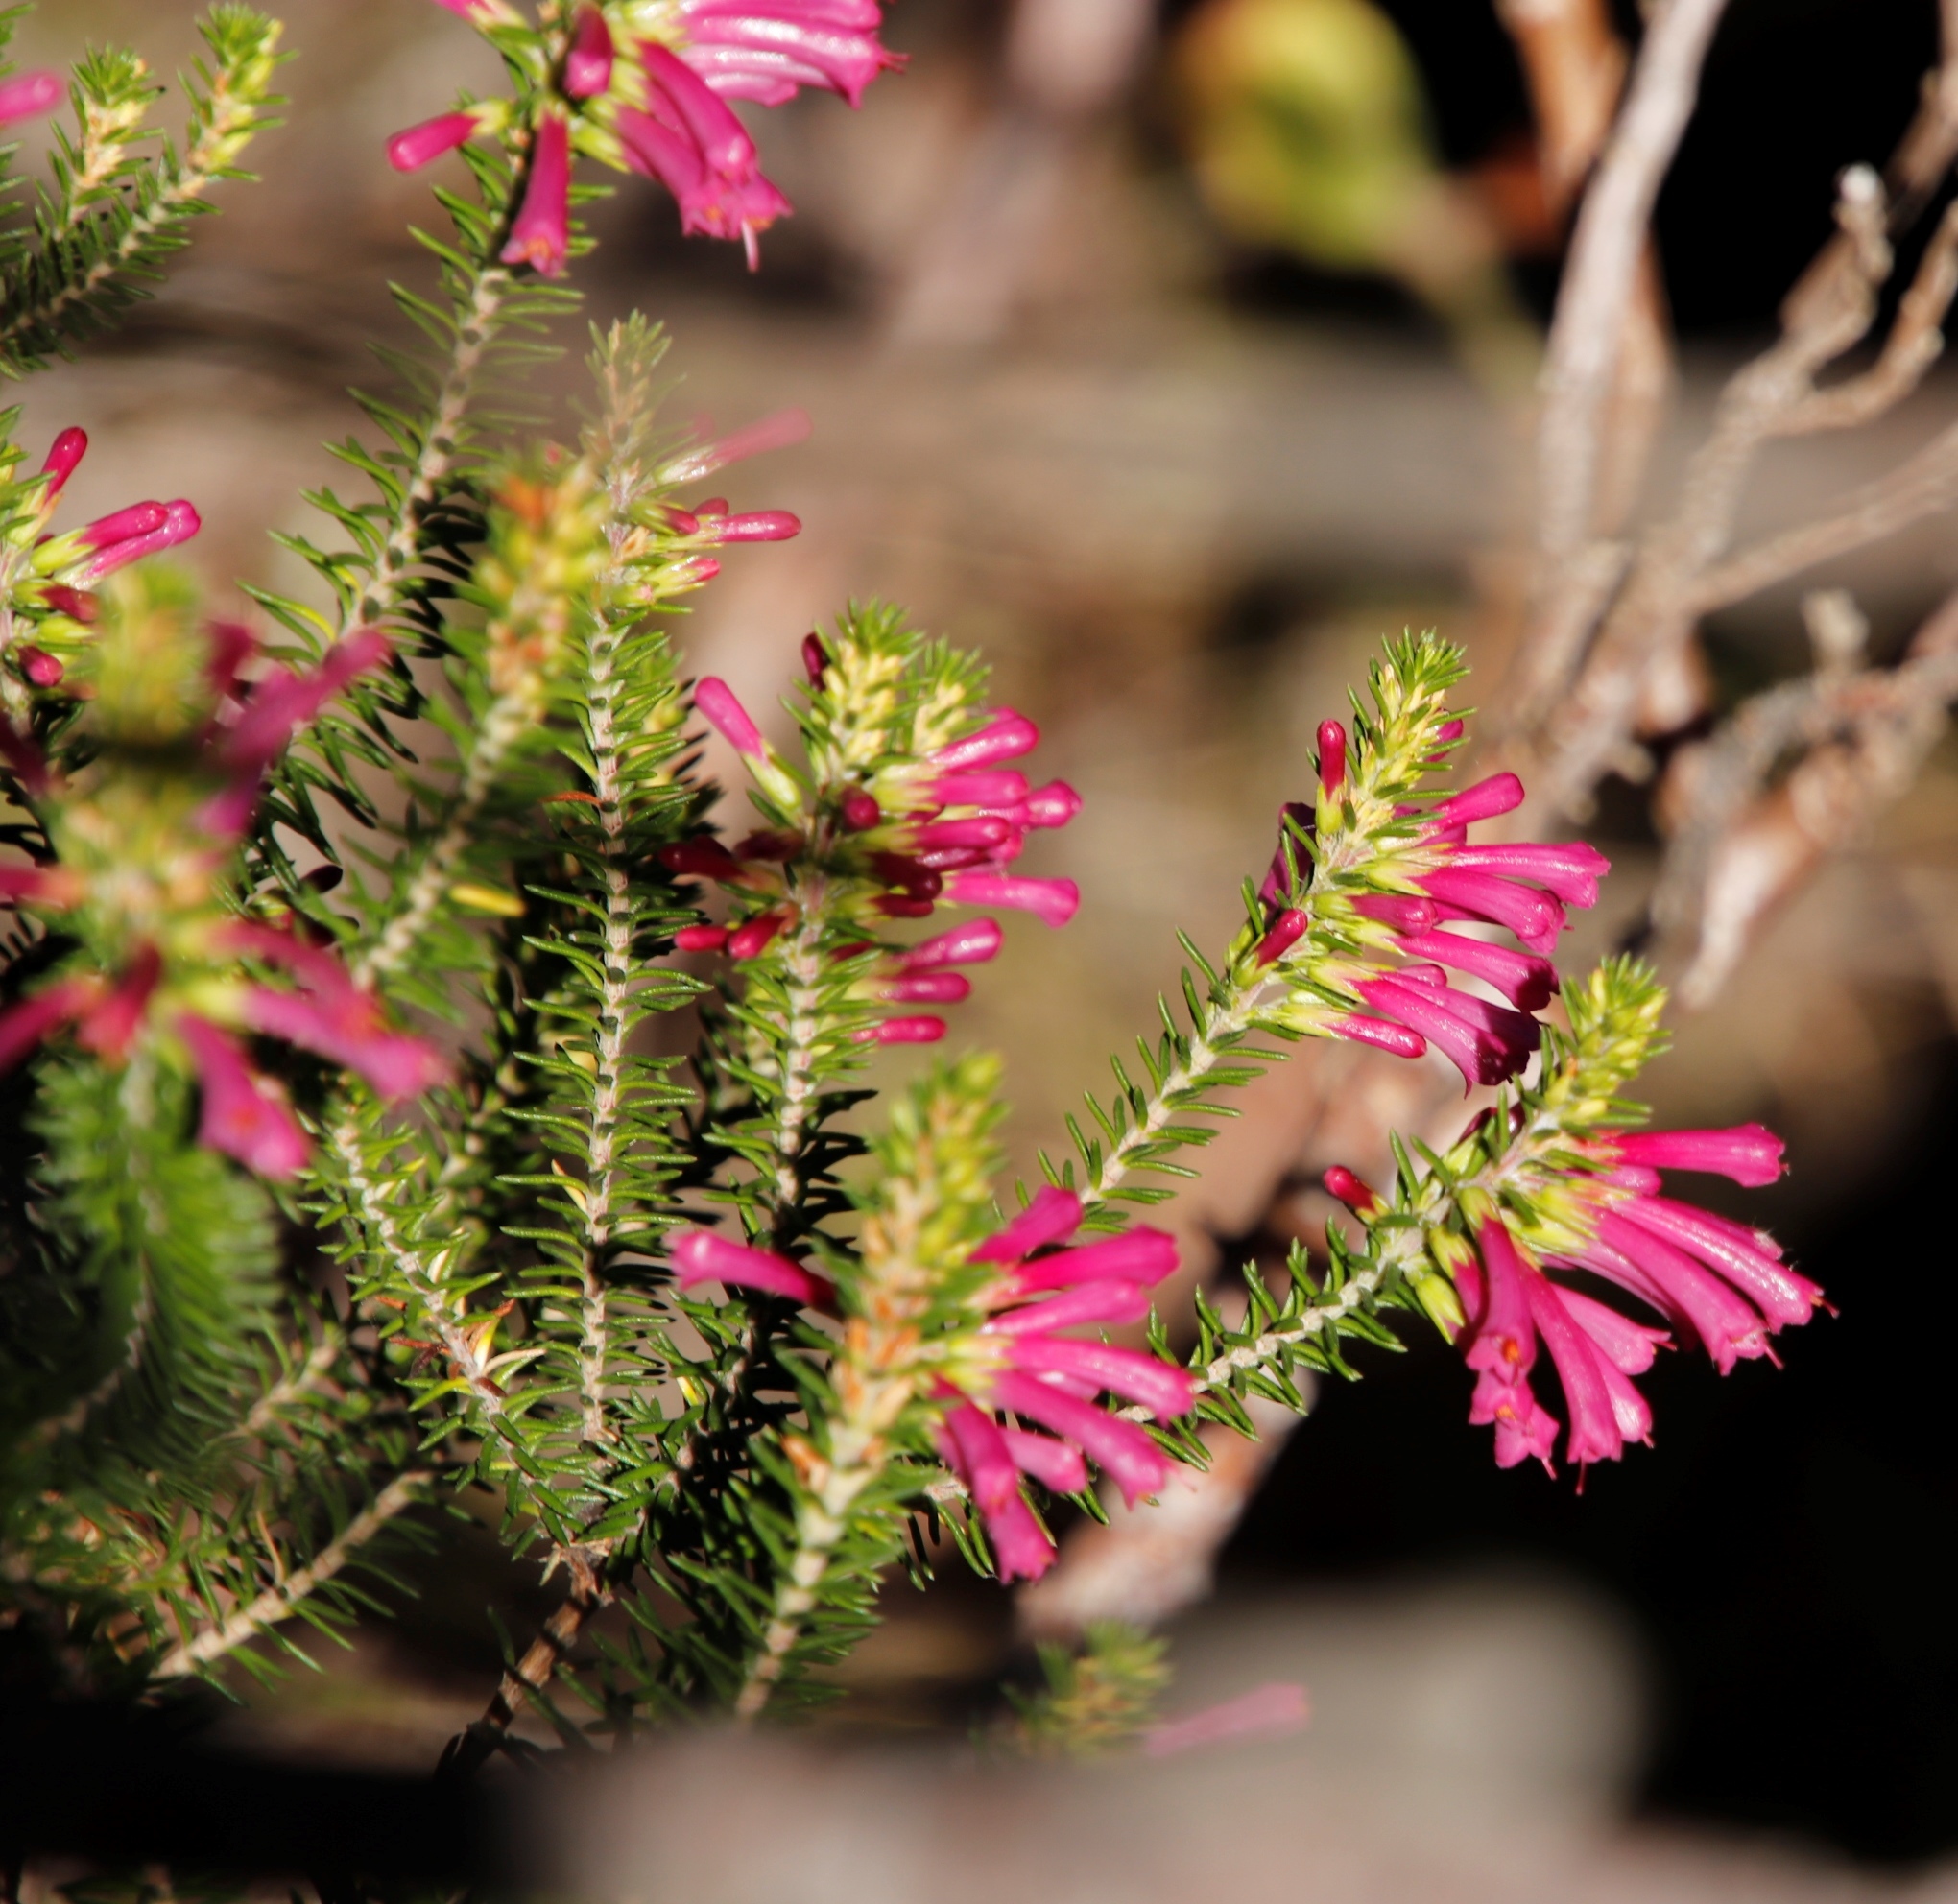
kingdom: Plantae
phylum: Tracheophyta
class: Magnoliopsida
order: Ericales
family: Ericaceae
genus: Erica
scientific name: Erica abietina
